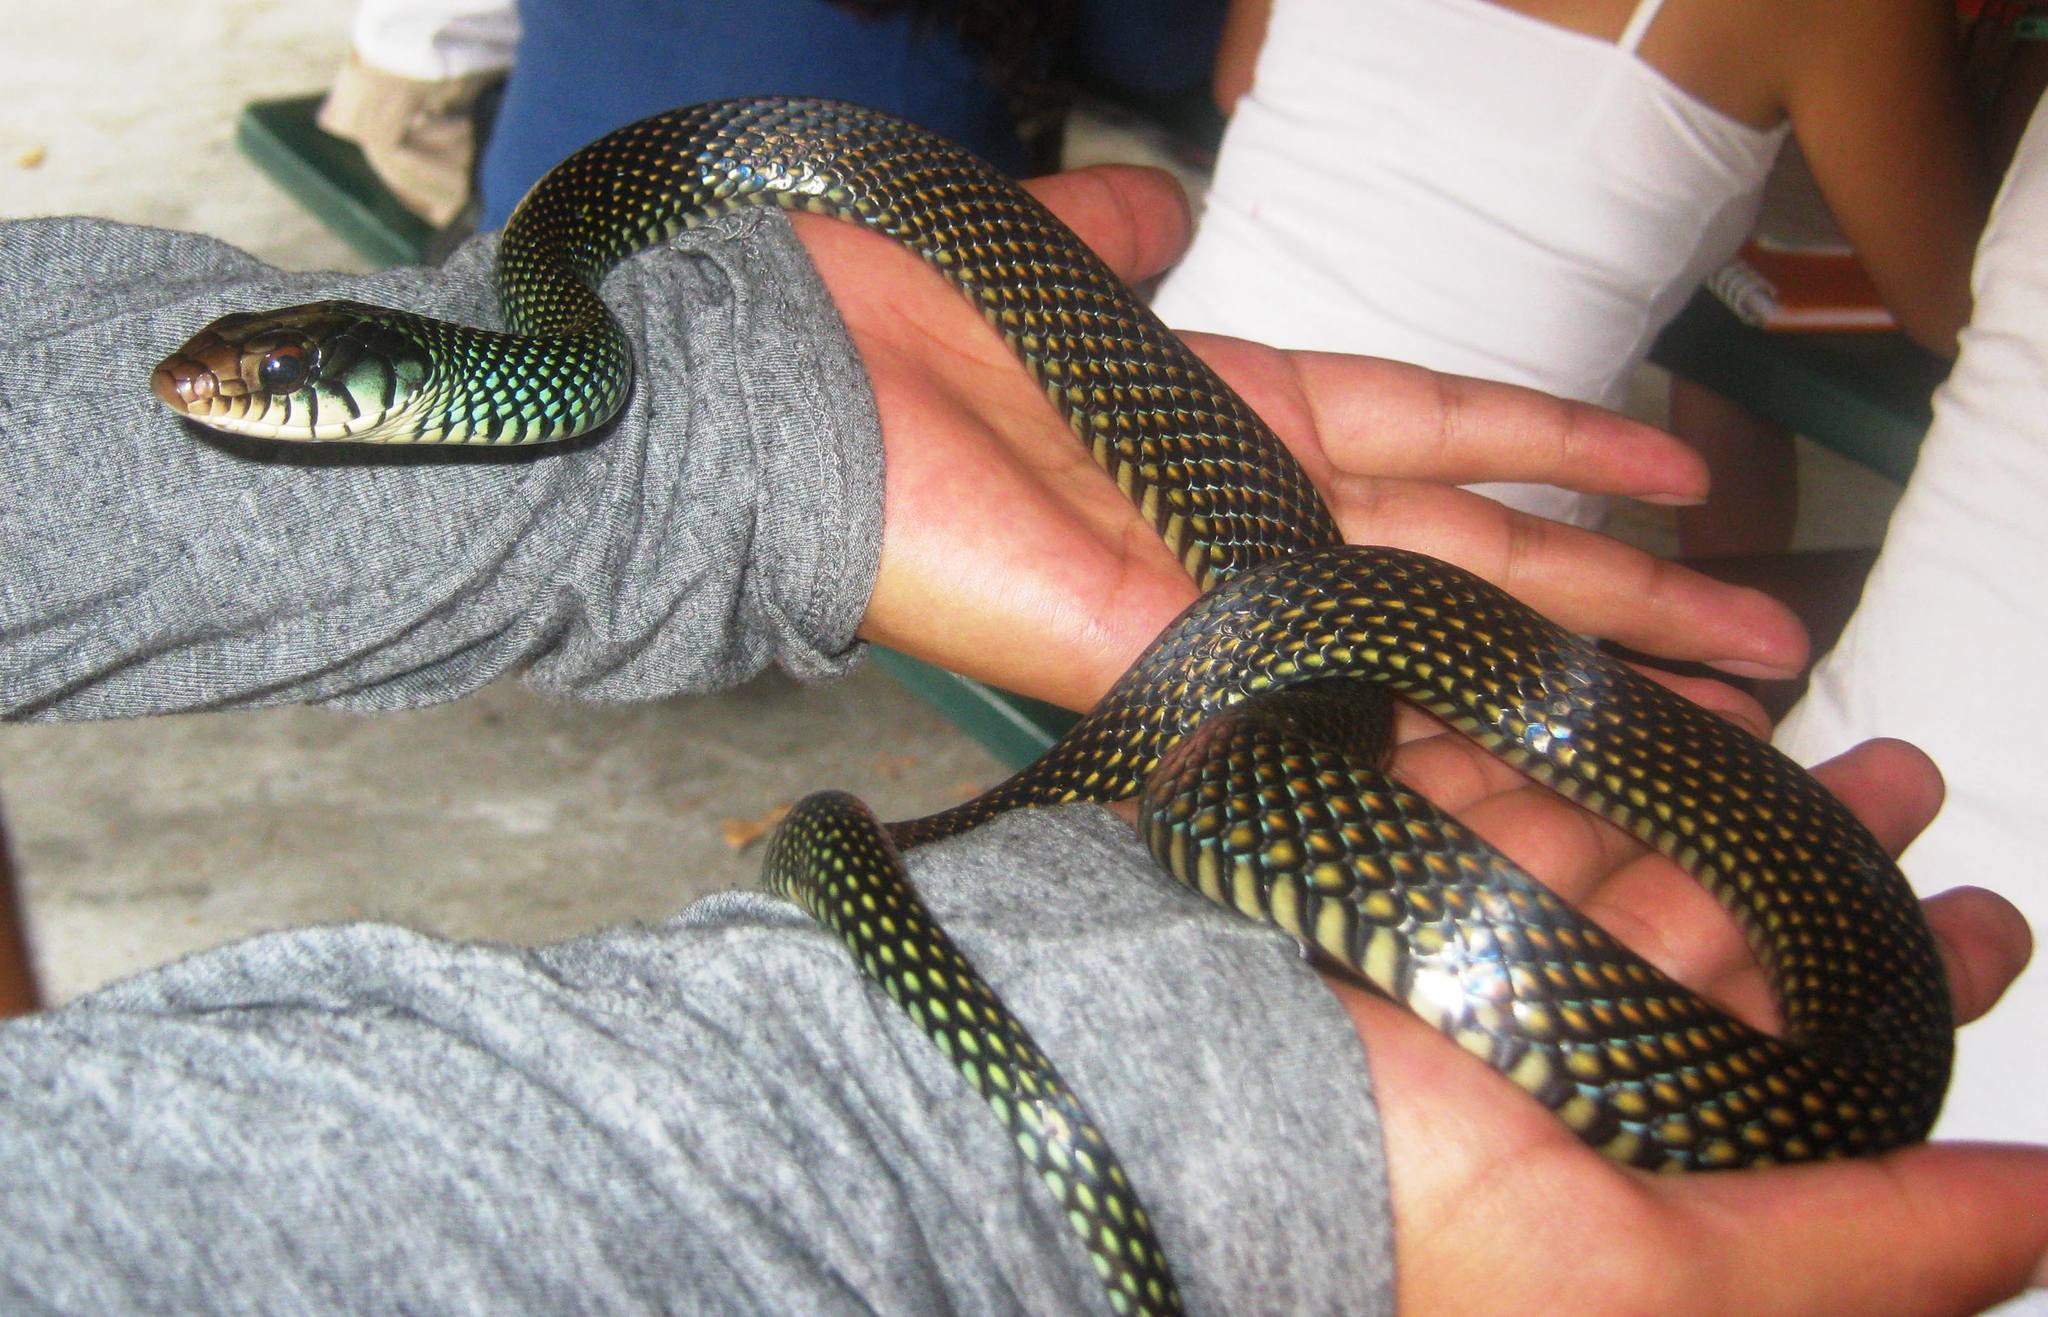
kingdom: Animalia
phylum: Chordata
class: Squamata
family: Colubridae
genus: Drymobius
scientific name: Drymobius margaritiferus
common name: Central american speckled racer
